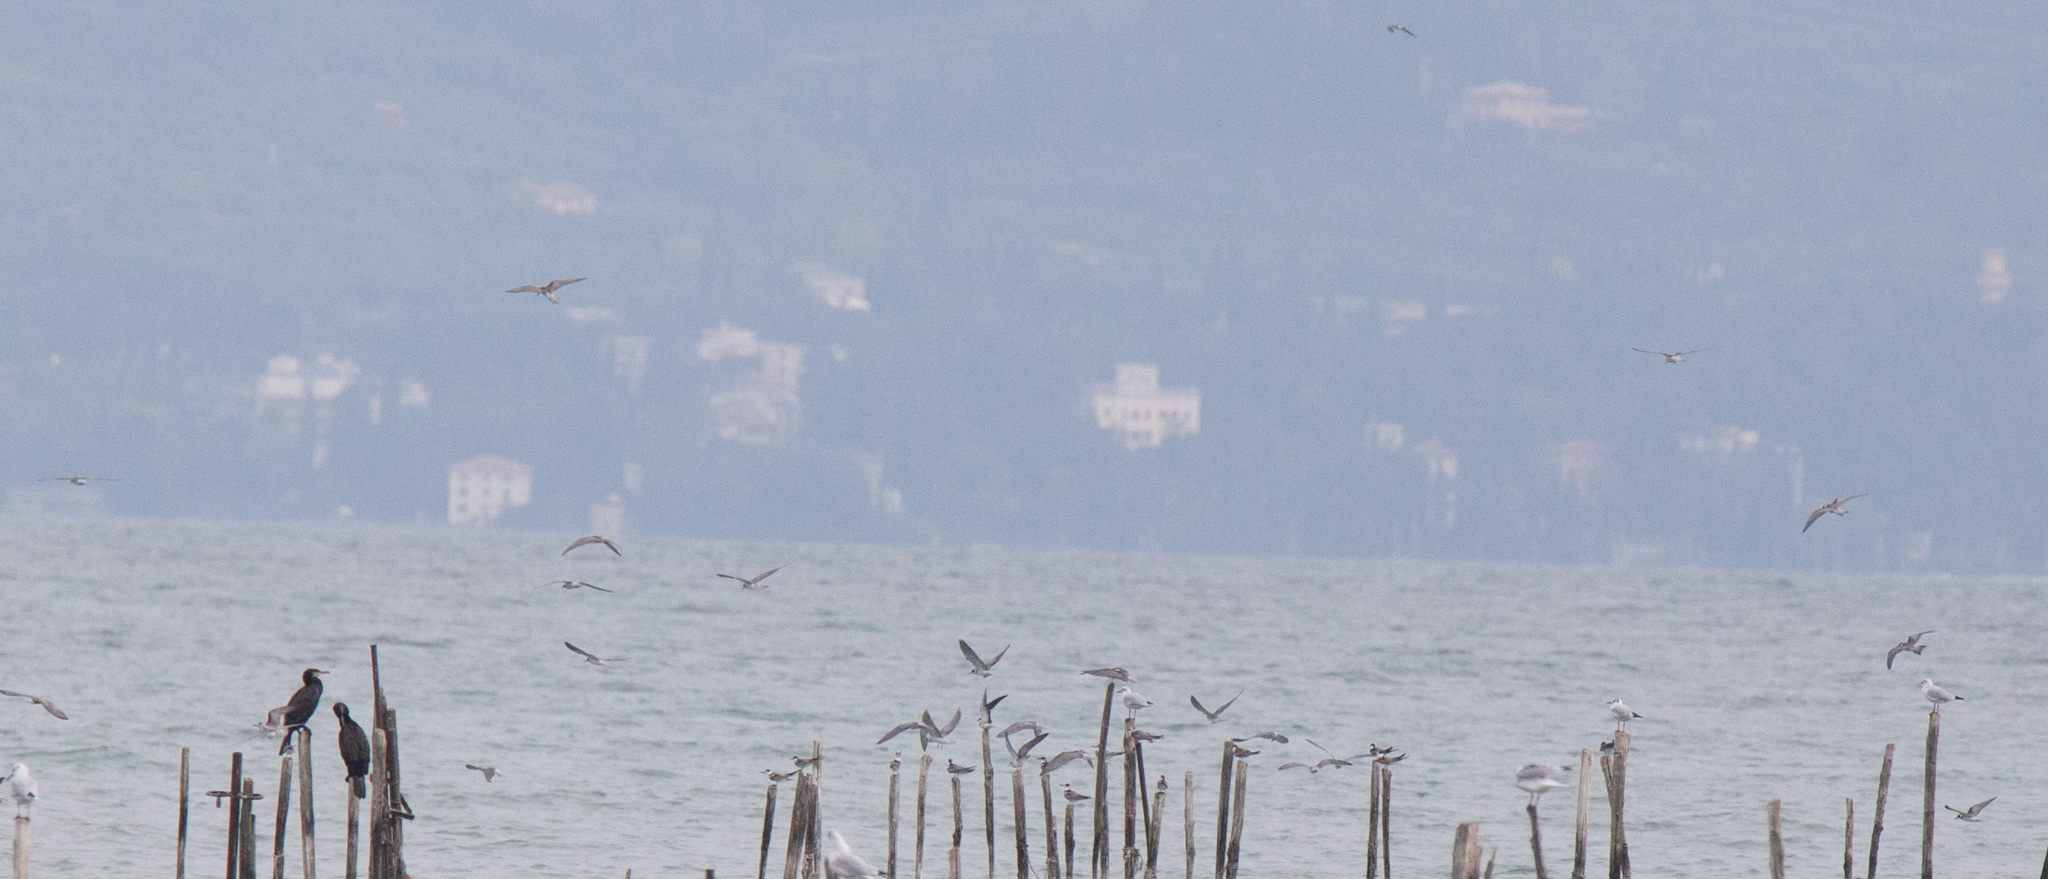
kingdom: Animalia
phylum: Chordata
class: Aves
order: Charadriiformes
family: Laridae
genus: Chlidonias
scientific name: Chlidonias niger
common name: Black tern
